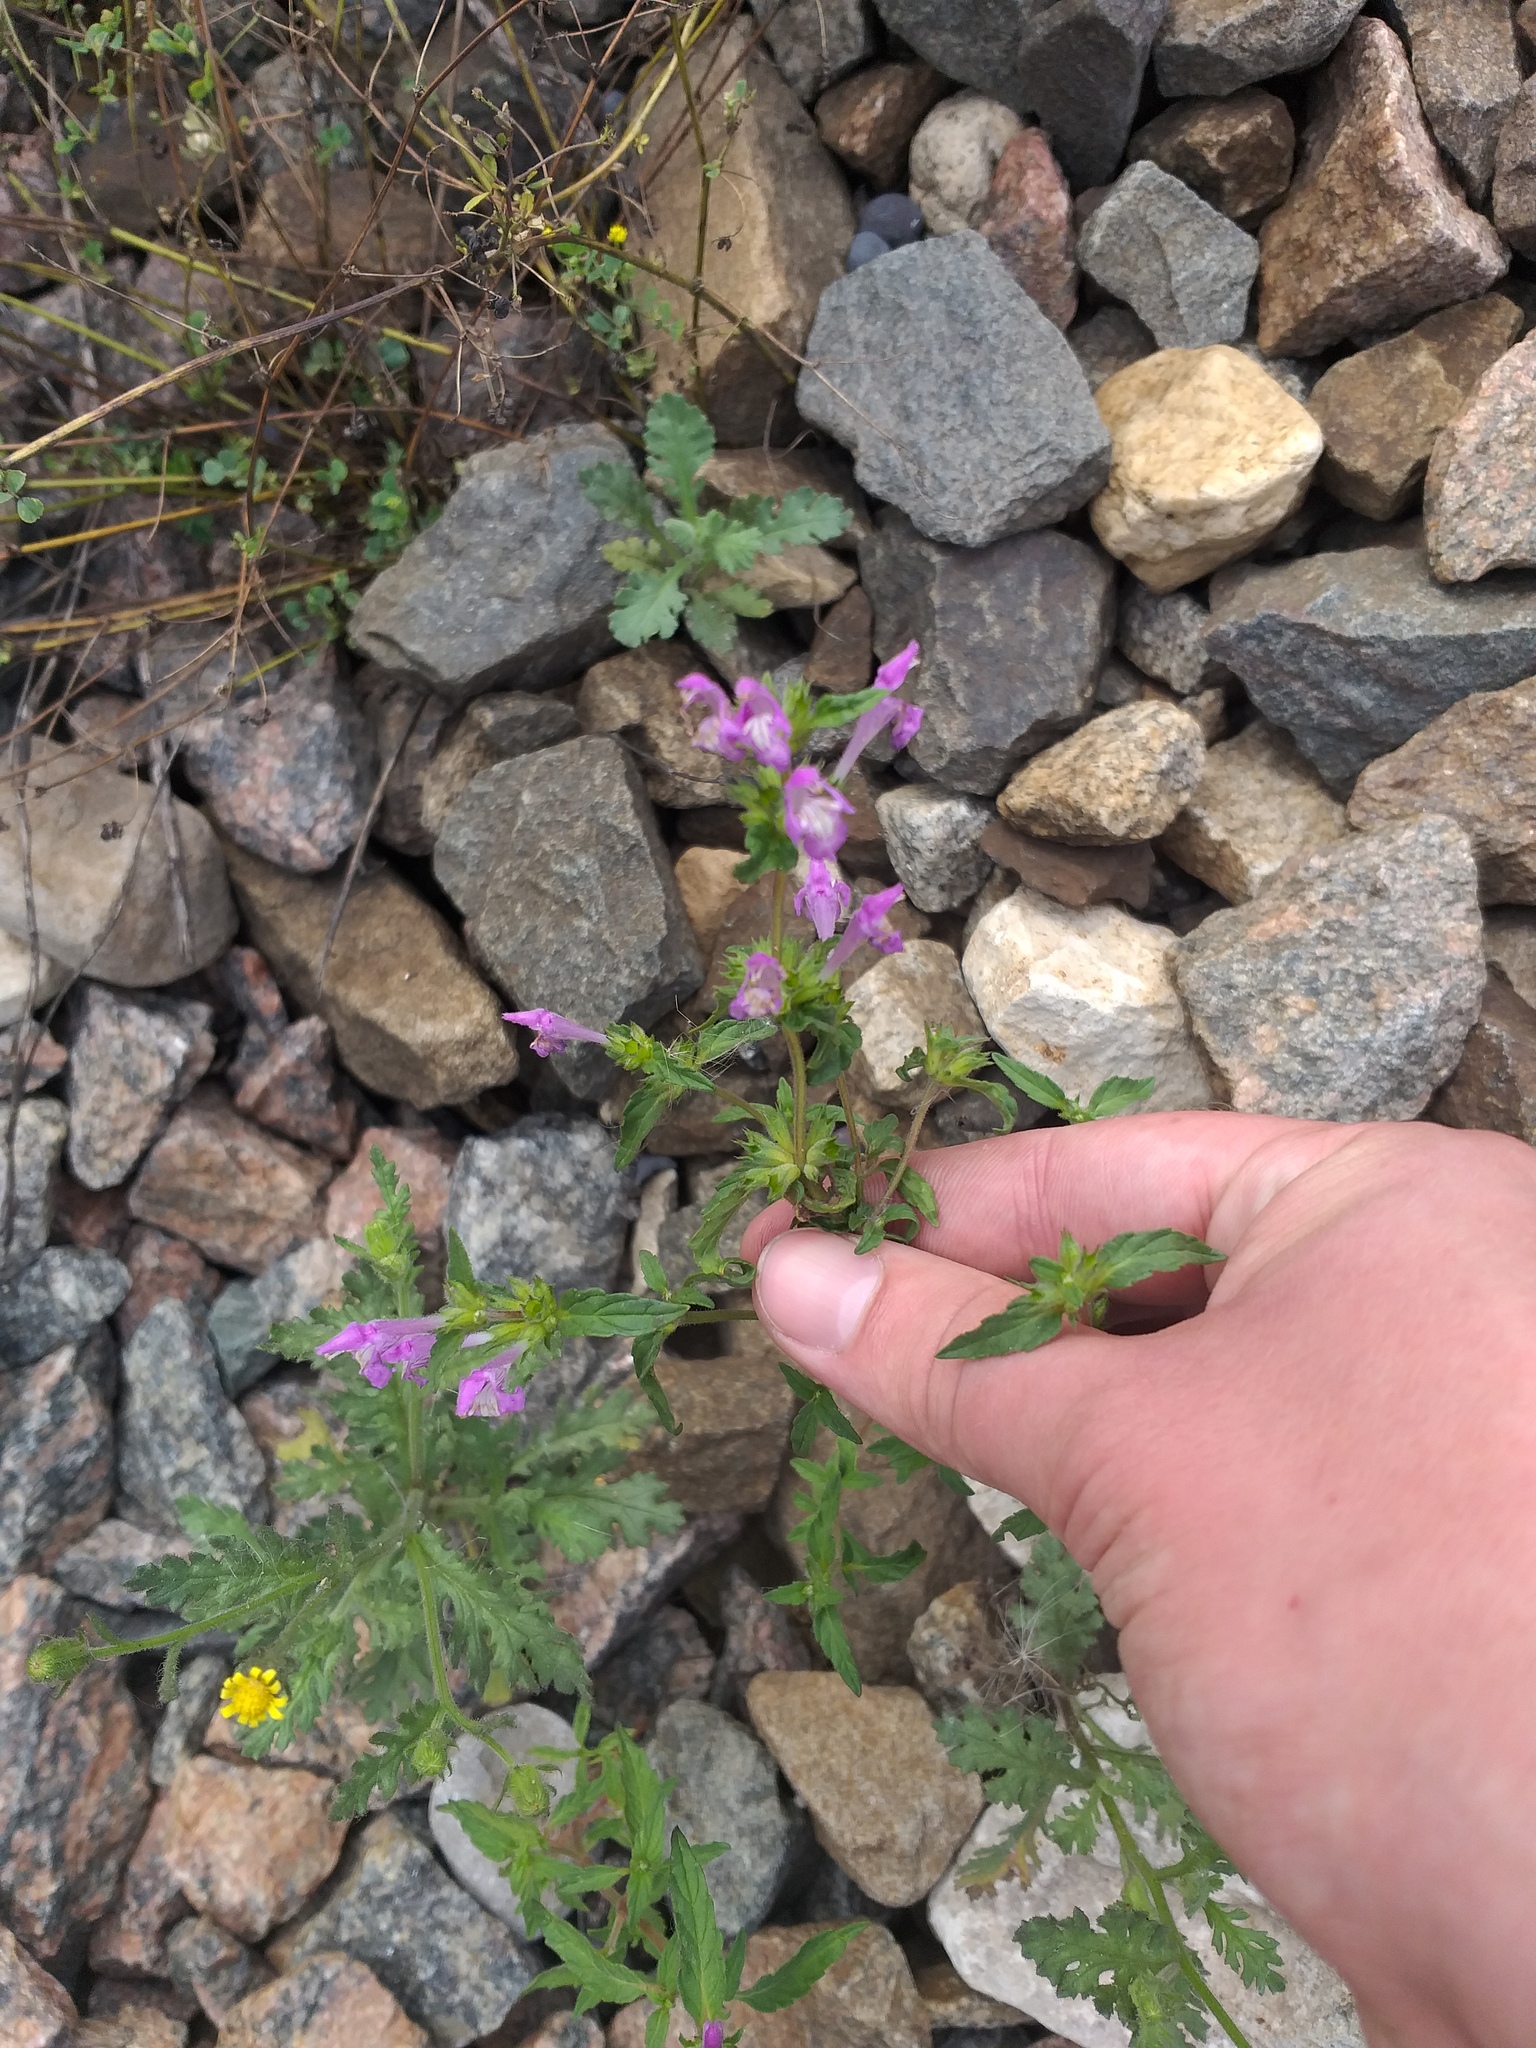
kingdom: Plantae
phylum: Tracheophyta
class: Magnoliopsida
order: Lamiales
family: Lamiaceae
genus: Galeopsis
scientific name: Galeopsis ladanum
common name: Broad-leaved hemp-nettle
